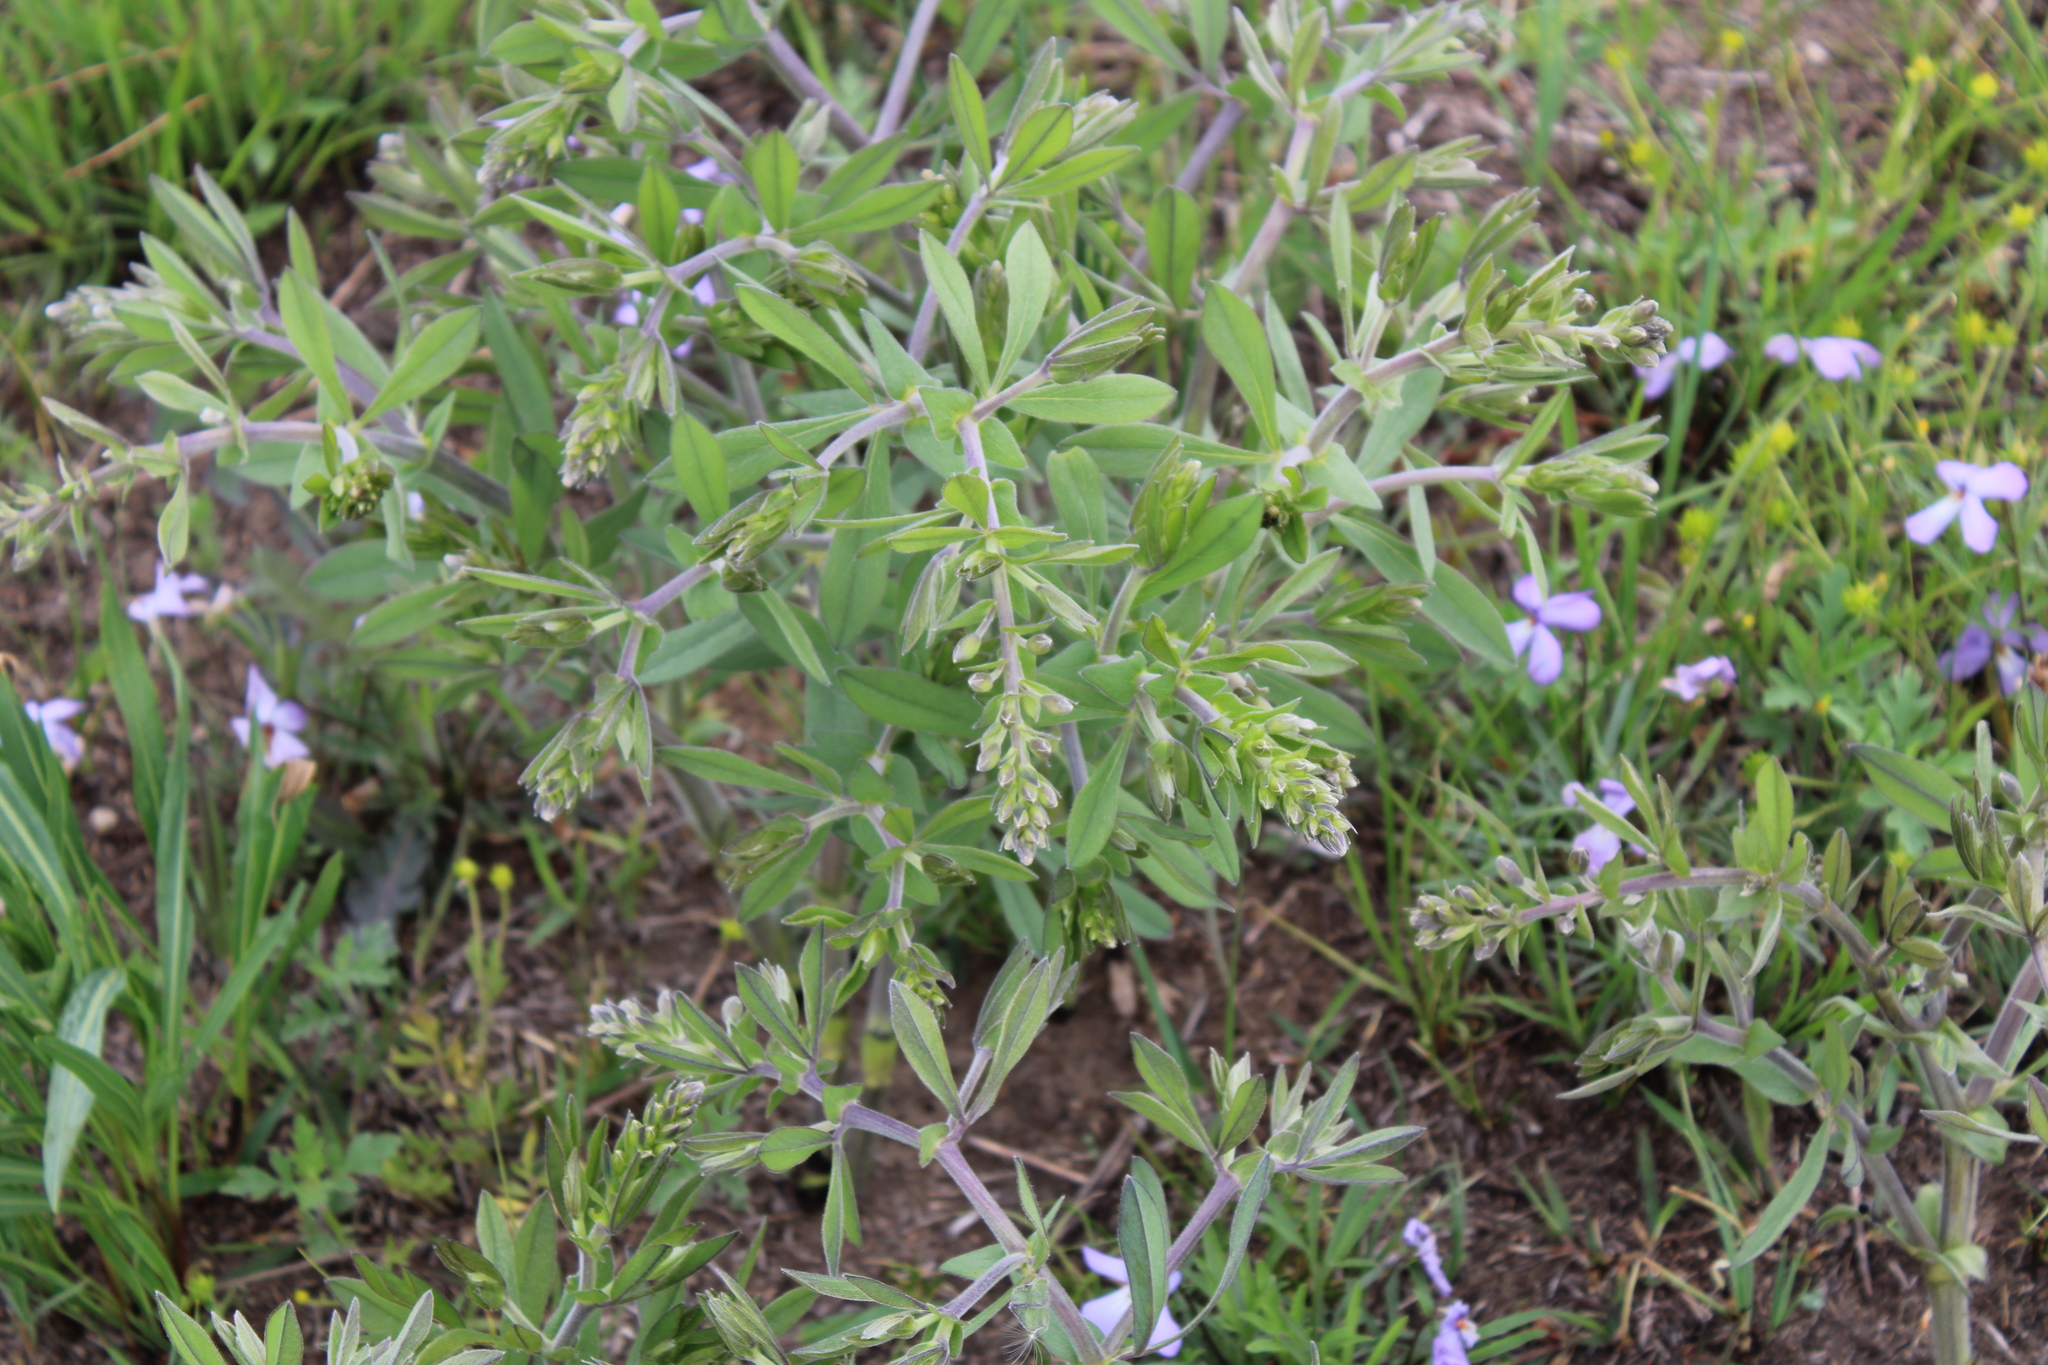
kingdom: Plantae
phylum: Tracheophyta
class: Magnoliopsida
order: Fabales
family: Fabaceae
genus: Baptisia
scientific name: Baptisia bracteata
